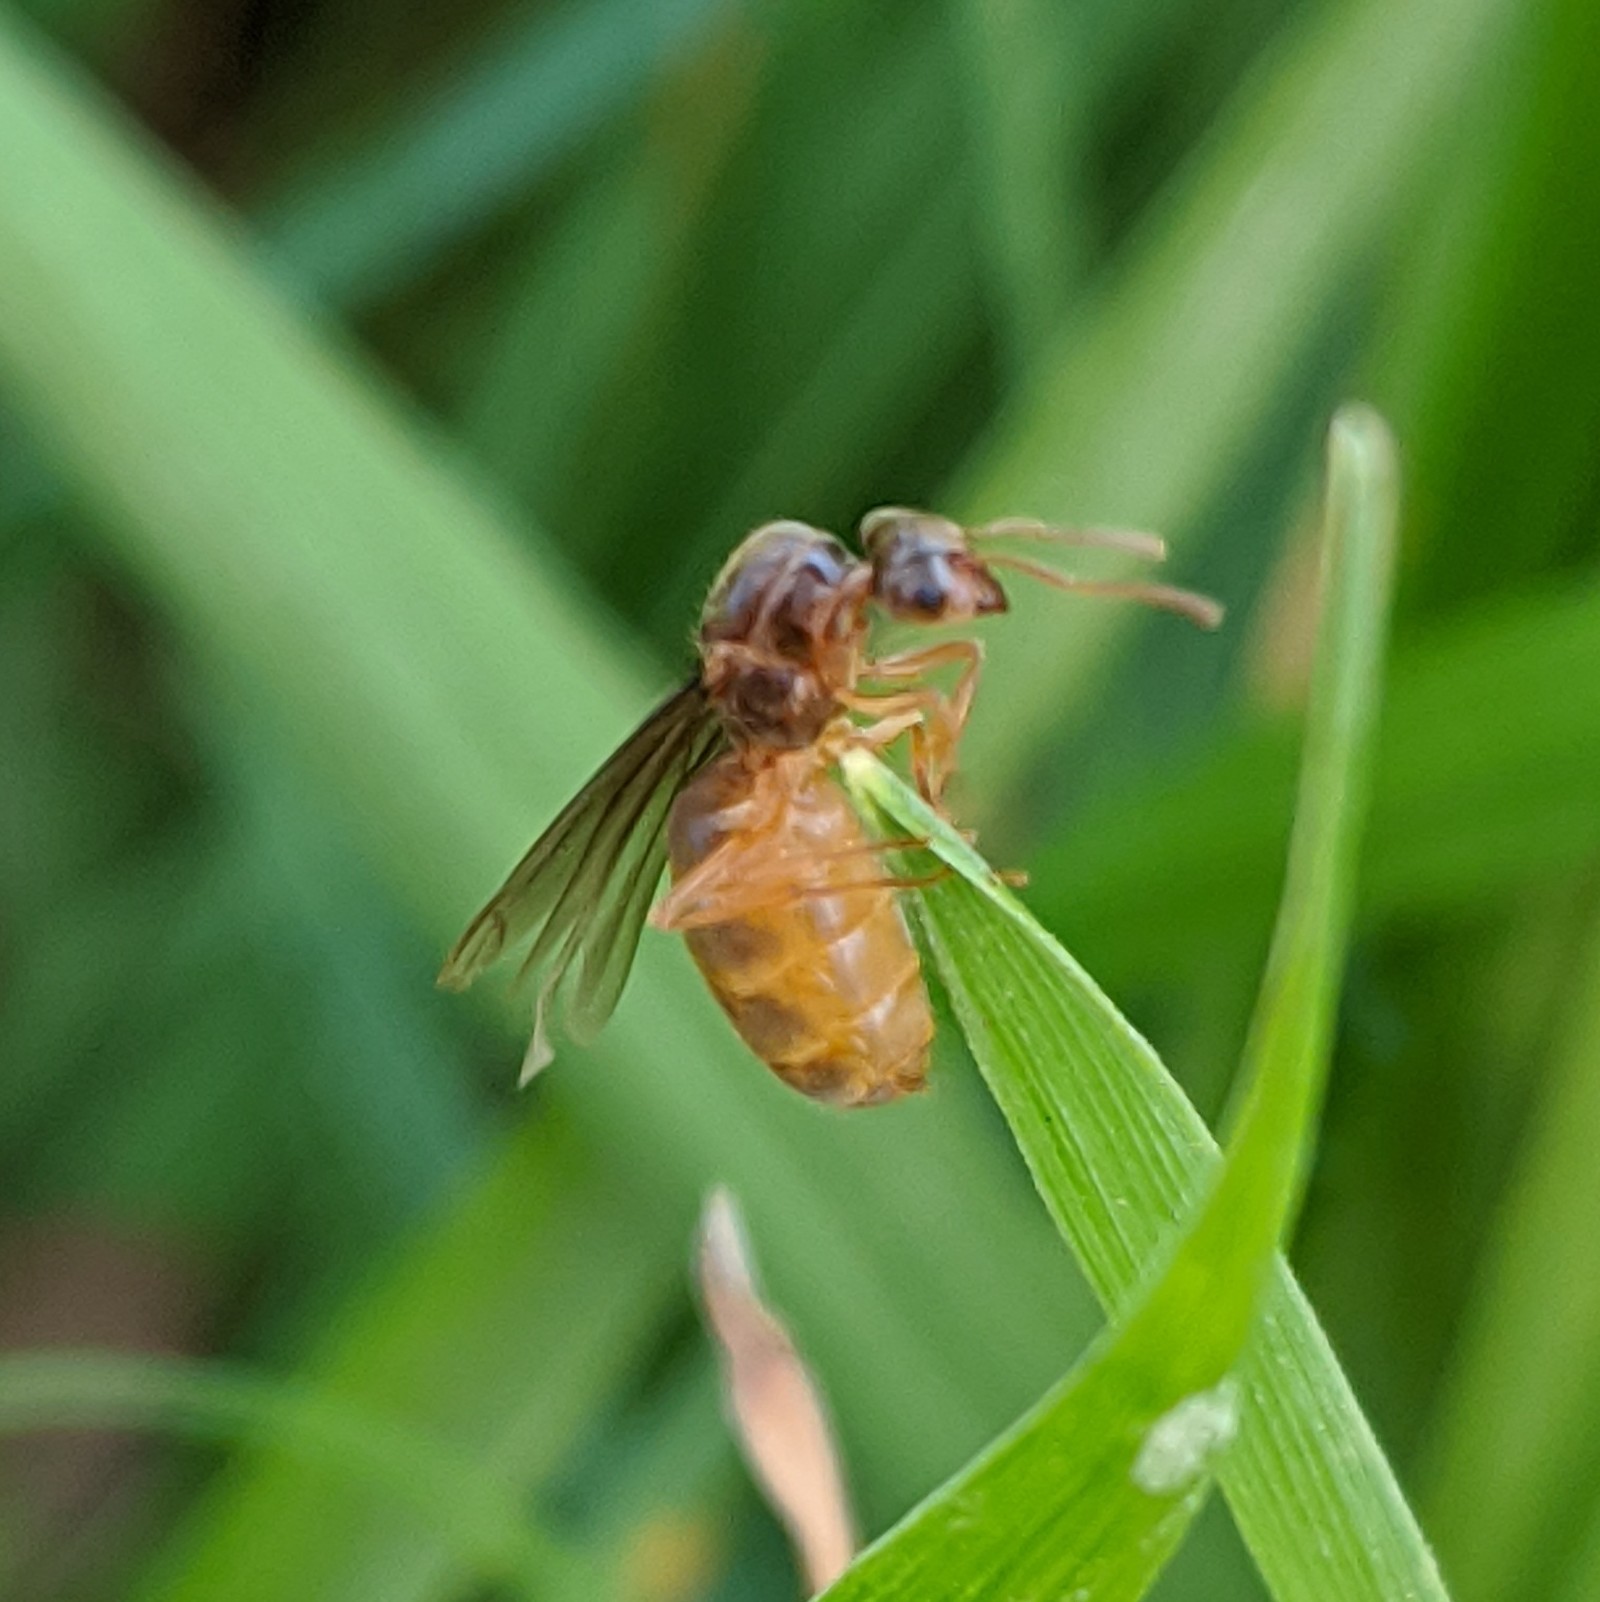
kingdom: Animalia
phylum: Arthropoda
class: Insecta
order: Hymenoptera
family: Formicidae
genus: Lasius
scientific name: Lasius flavus
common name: Blond field ant
